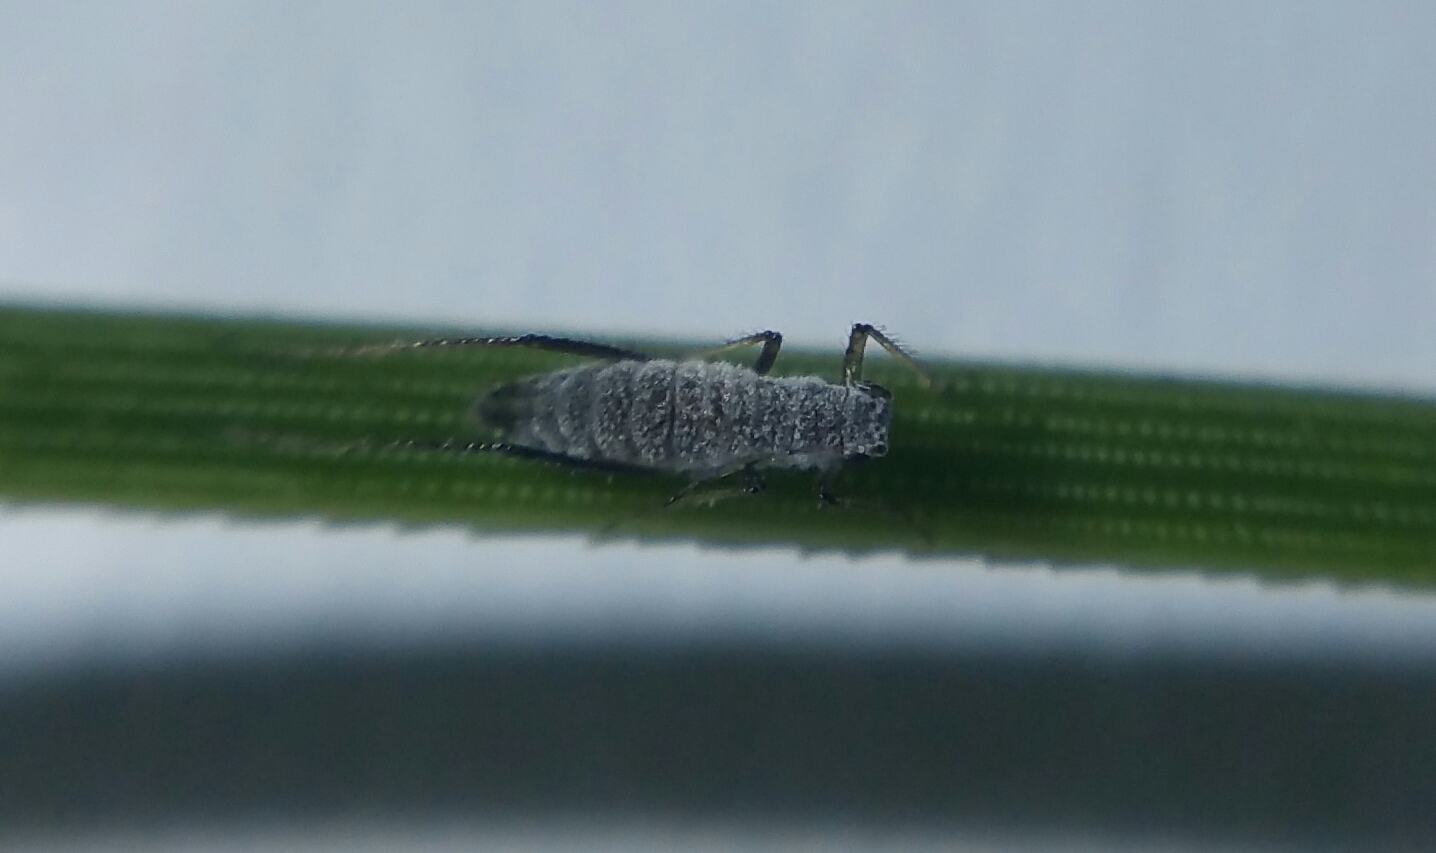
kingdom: Animalia
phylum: Arthropoda
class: Insecta
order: Hemiptera
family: Aphididae
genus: Eulachnus
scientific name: Eulachnus rileyi
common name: Active gray pine needle aphid
